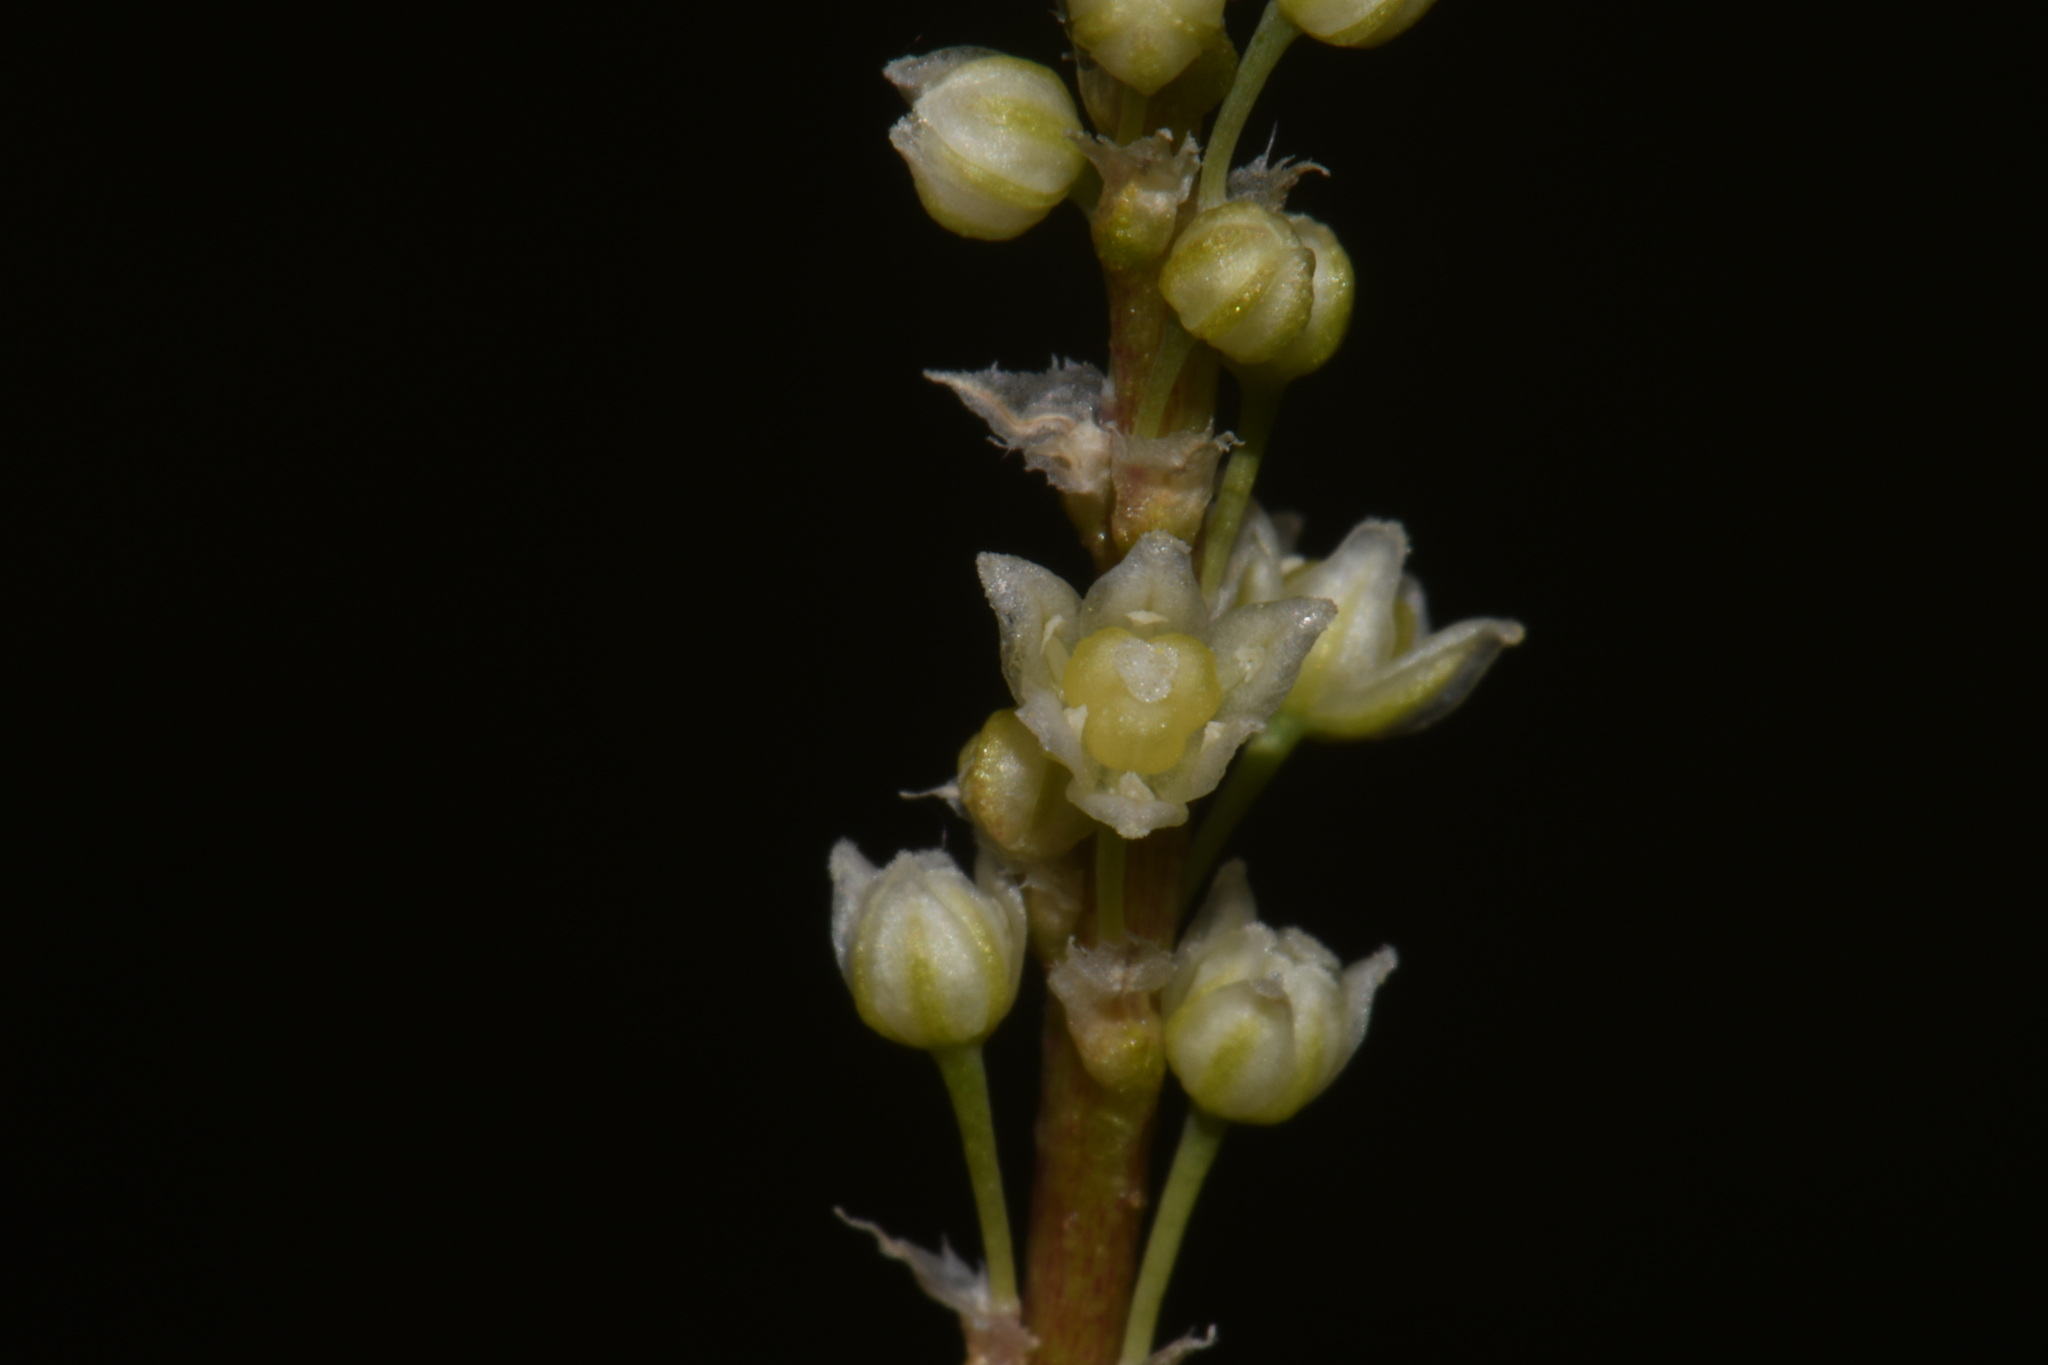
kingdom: Plantae
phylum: Tracheophyta
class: Liliopsida
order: Asparagales
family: Asparagaceae
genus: Nolina
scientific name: Nolina microcarpa
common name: Bear-grass
